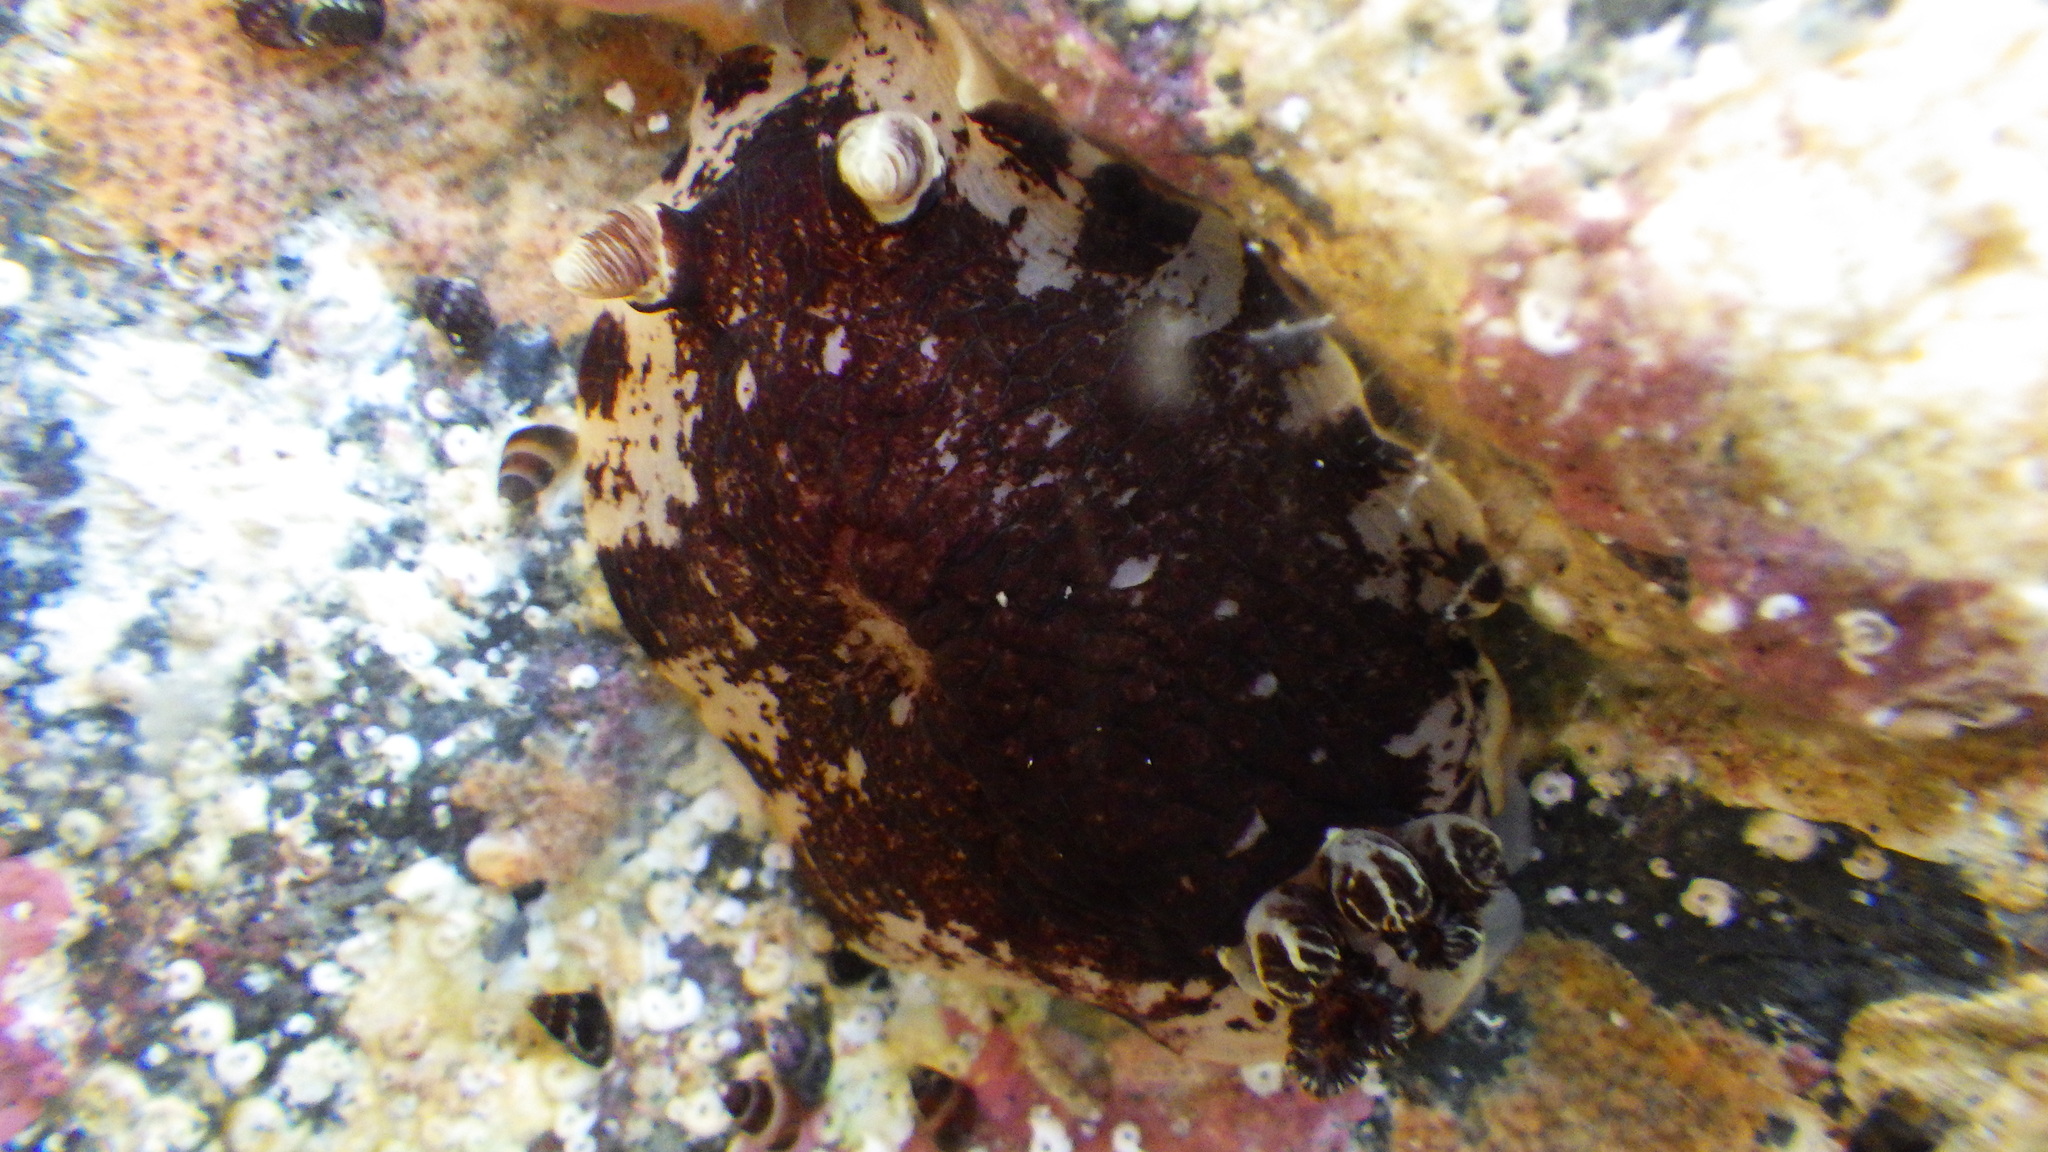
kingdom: Animalia
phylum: Mollusca
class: Gastropoda
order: Nudibranchia
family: Dorididae
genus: Aphelodoris
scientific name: Aphelodoris luctuosa
